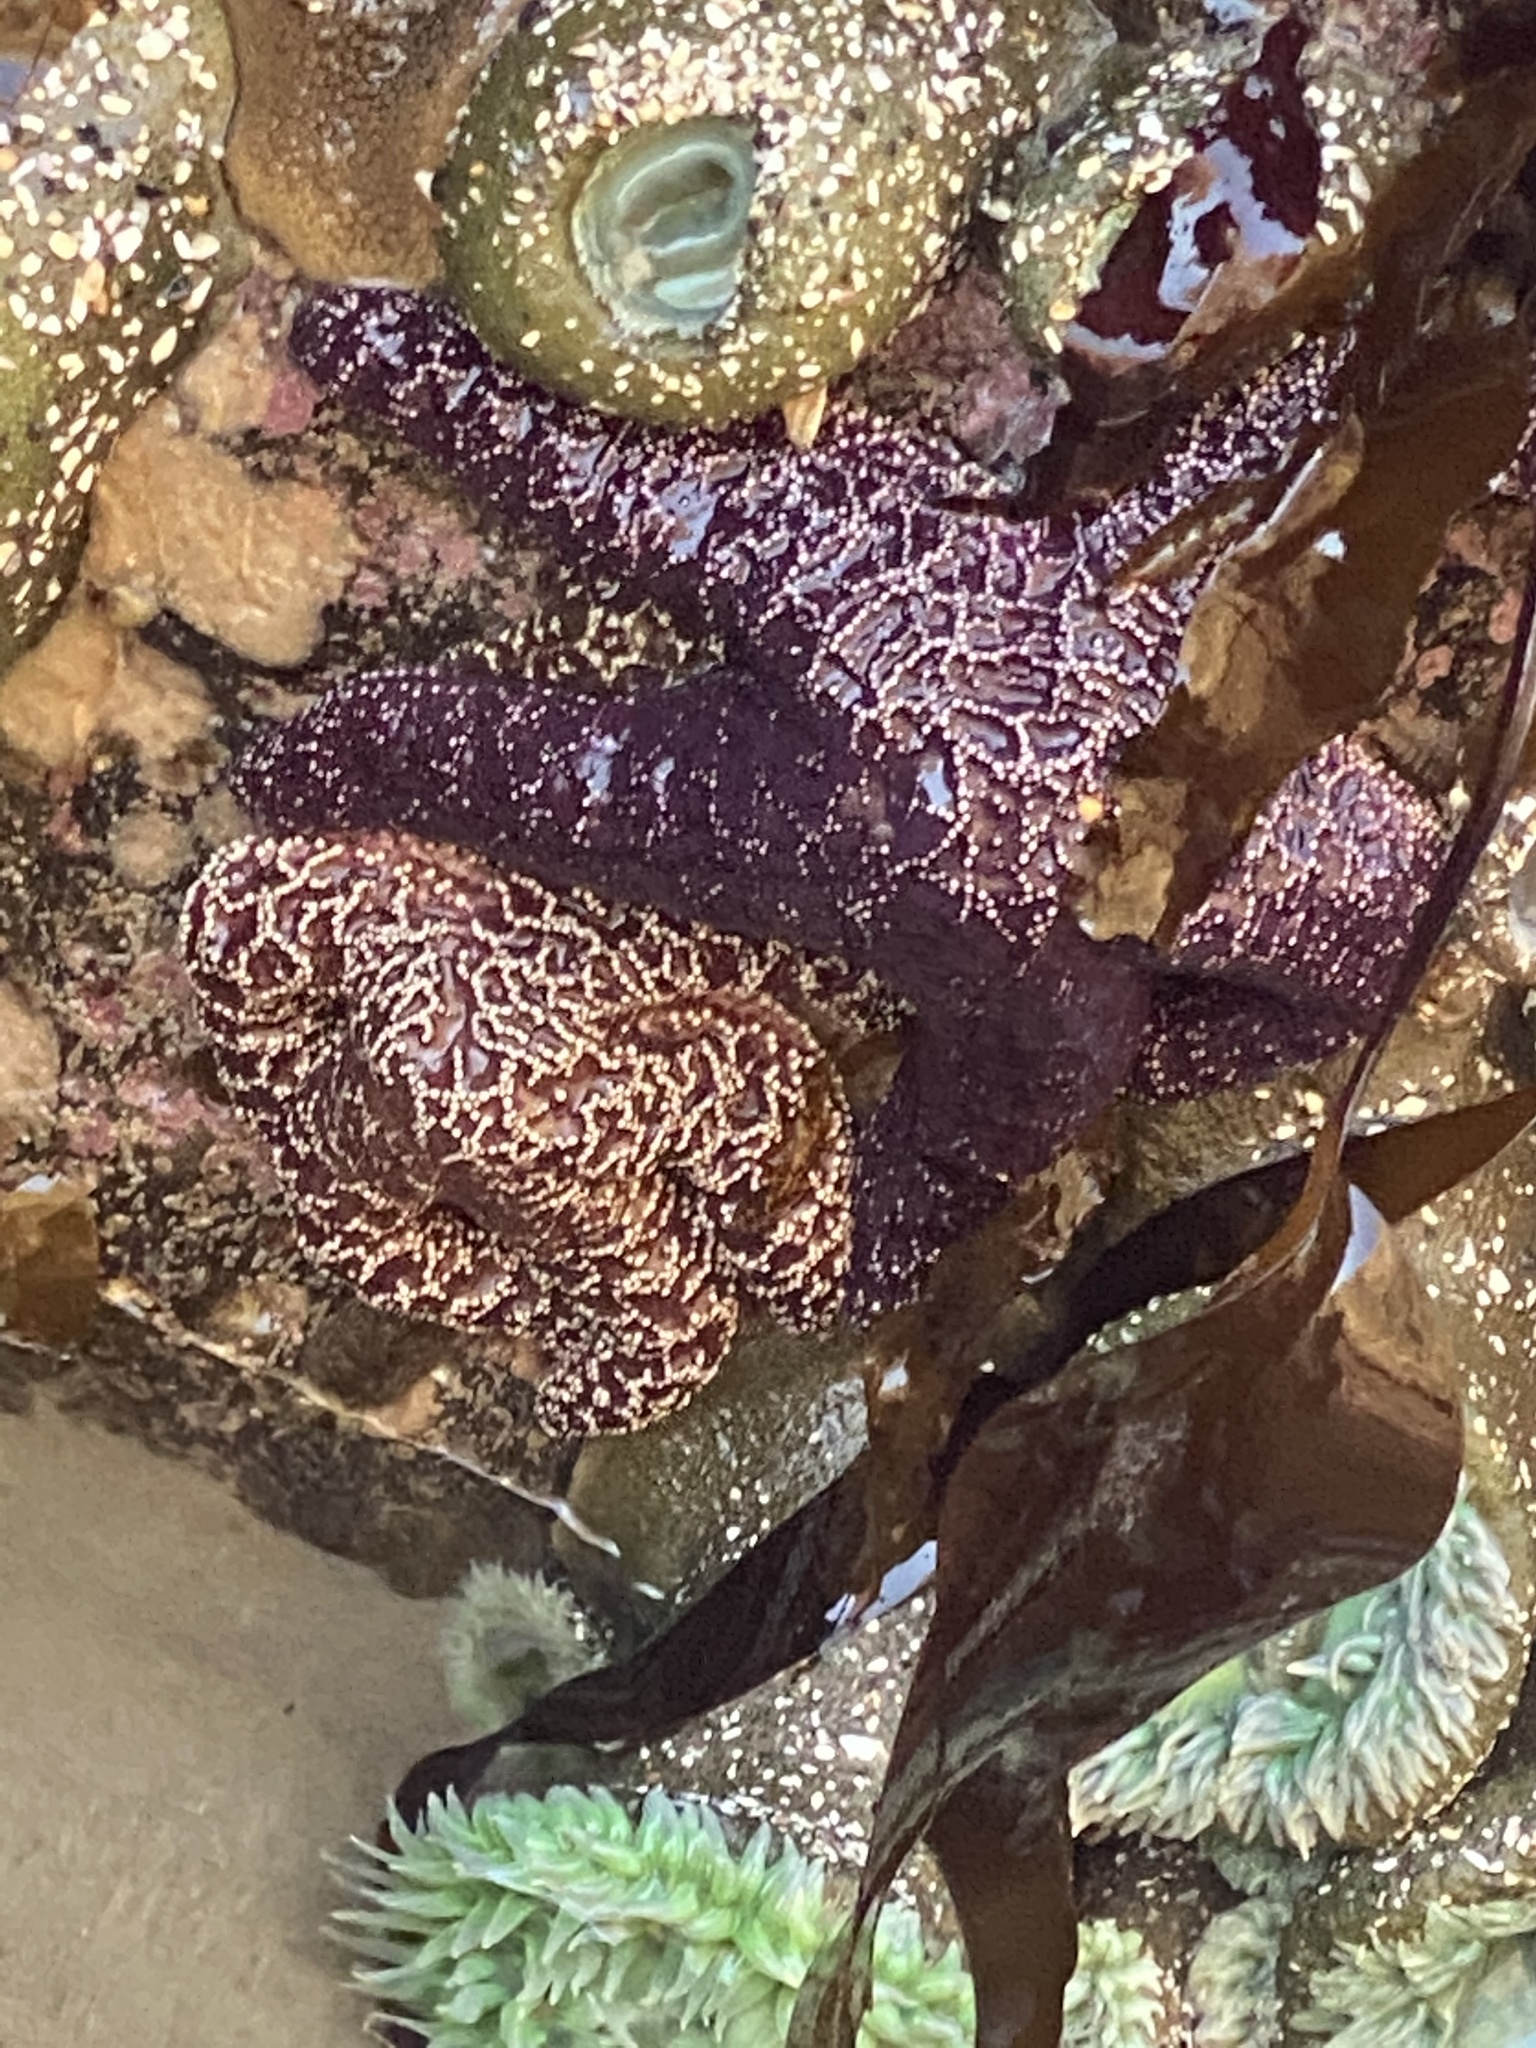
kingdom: Animalia
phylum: Echinodermata
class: Asteroidea
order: Forcipulatida
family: Asteriidae
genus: Pisaster
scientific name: Pisaster ochraceus
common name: Ochre stars
